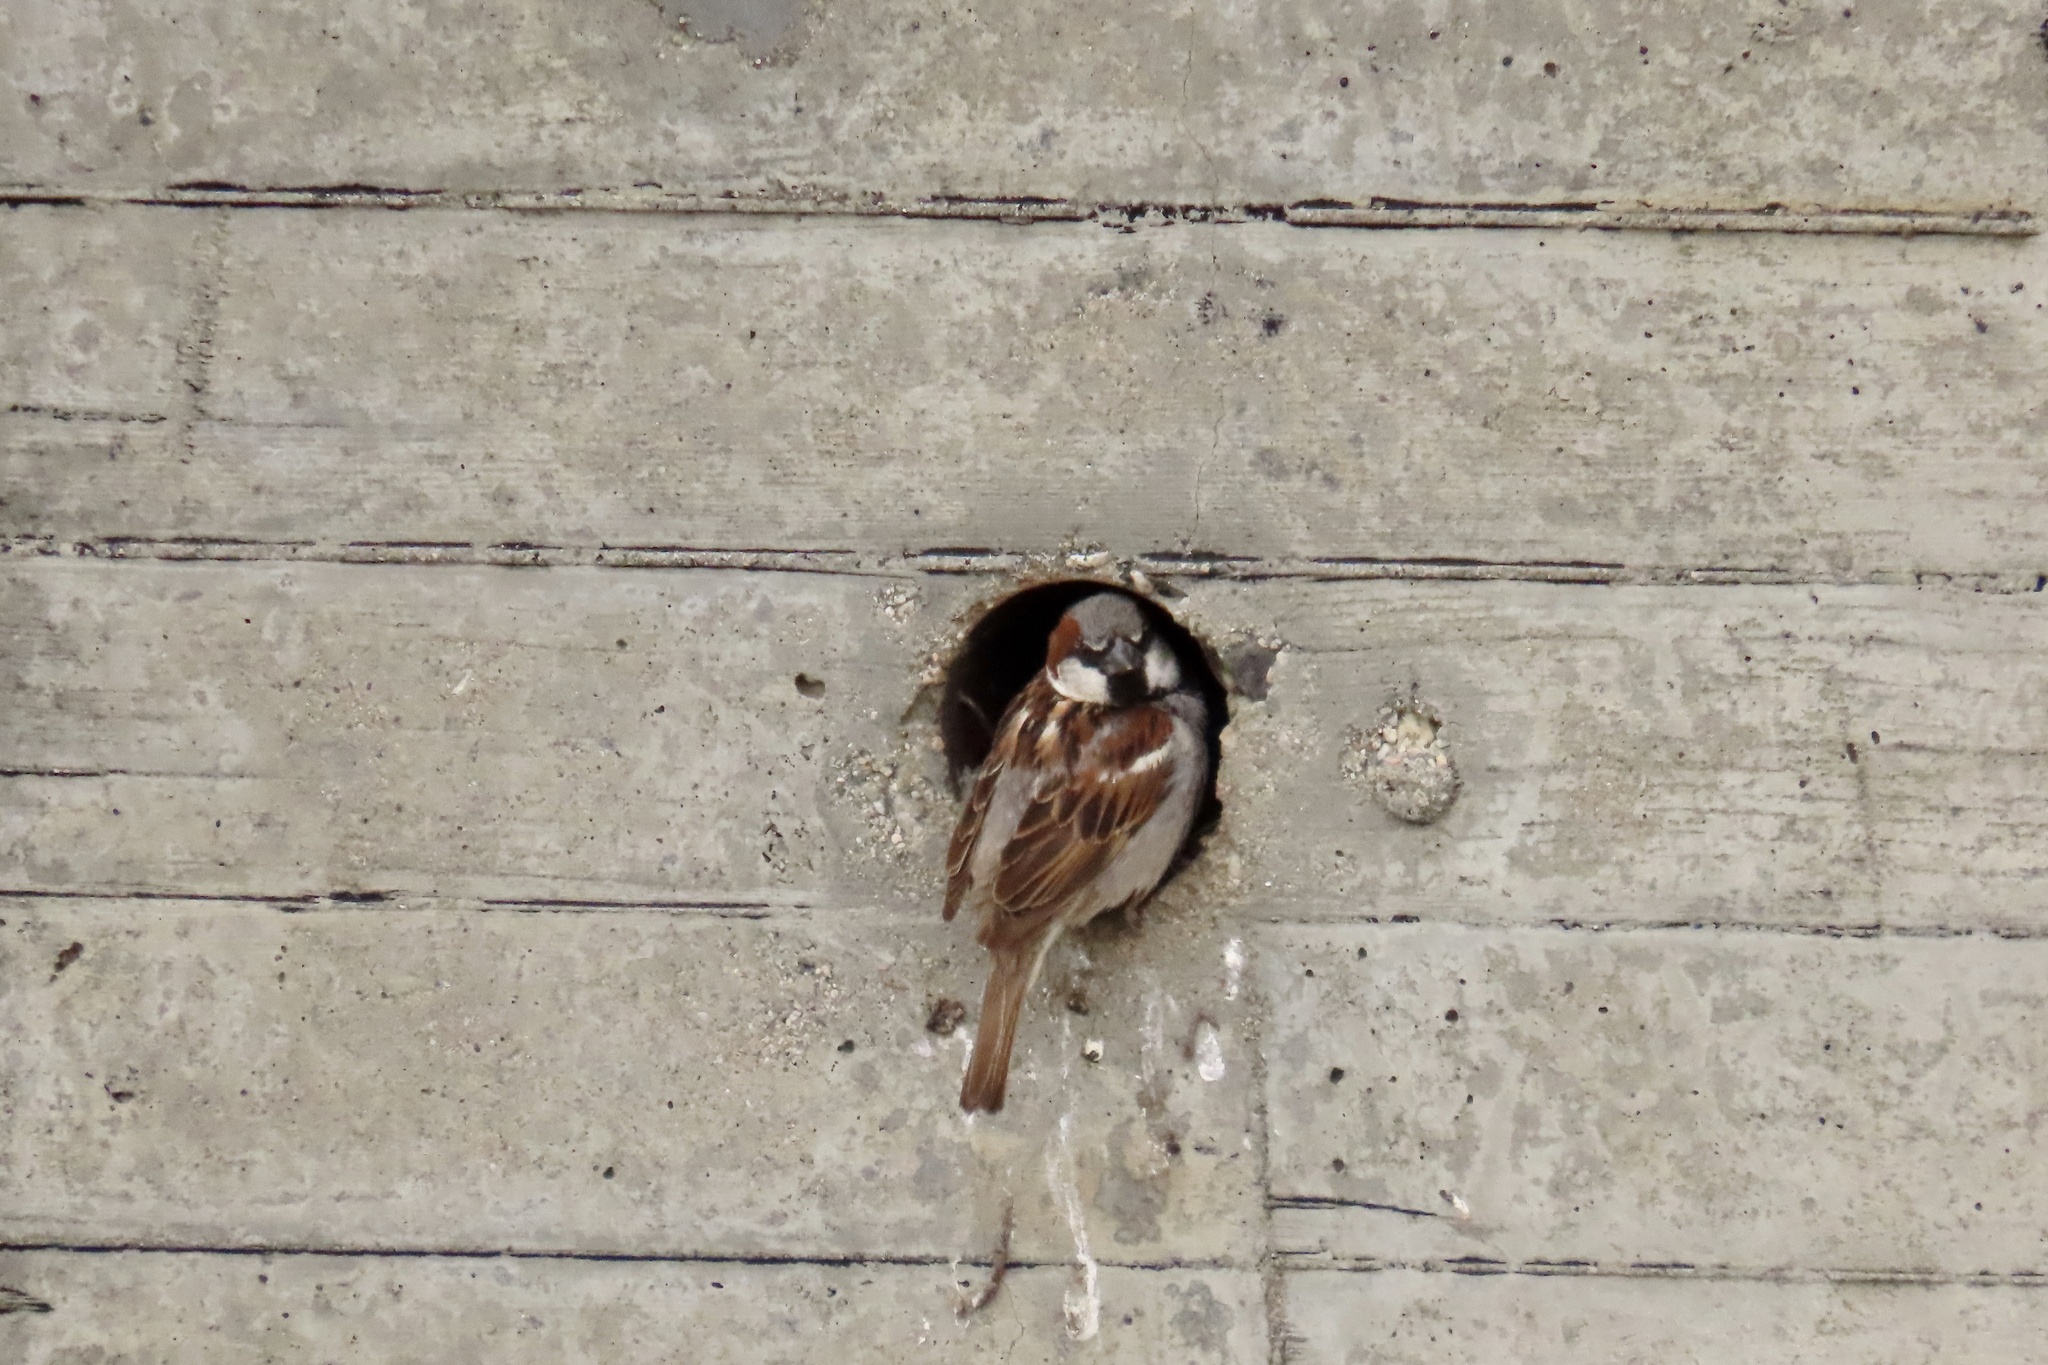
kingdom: Animalia
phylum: Chordata
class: Aves
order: Passeriformes
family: Passeridae
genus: Passer
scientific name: Passer domesticus
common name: House sparrow
